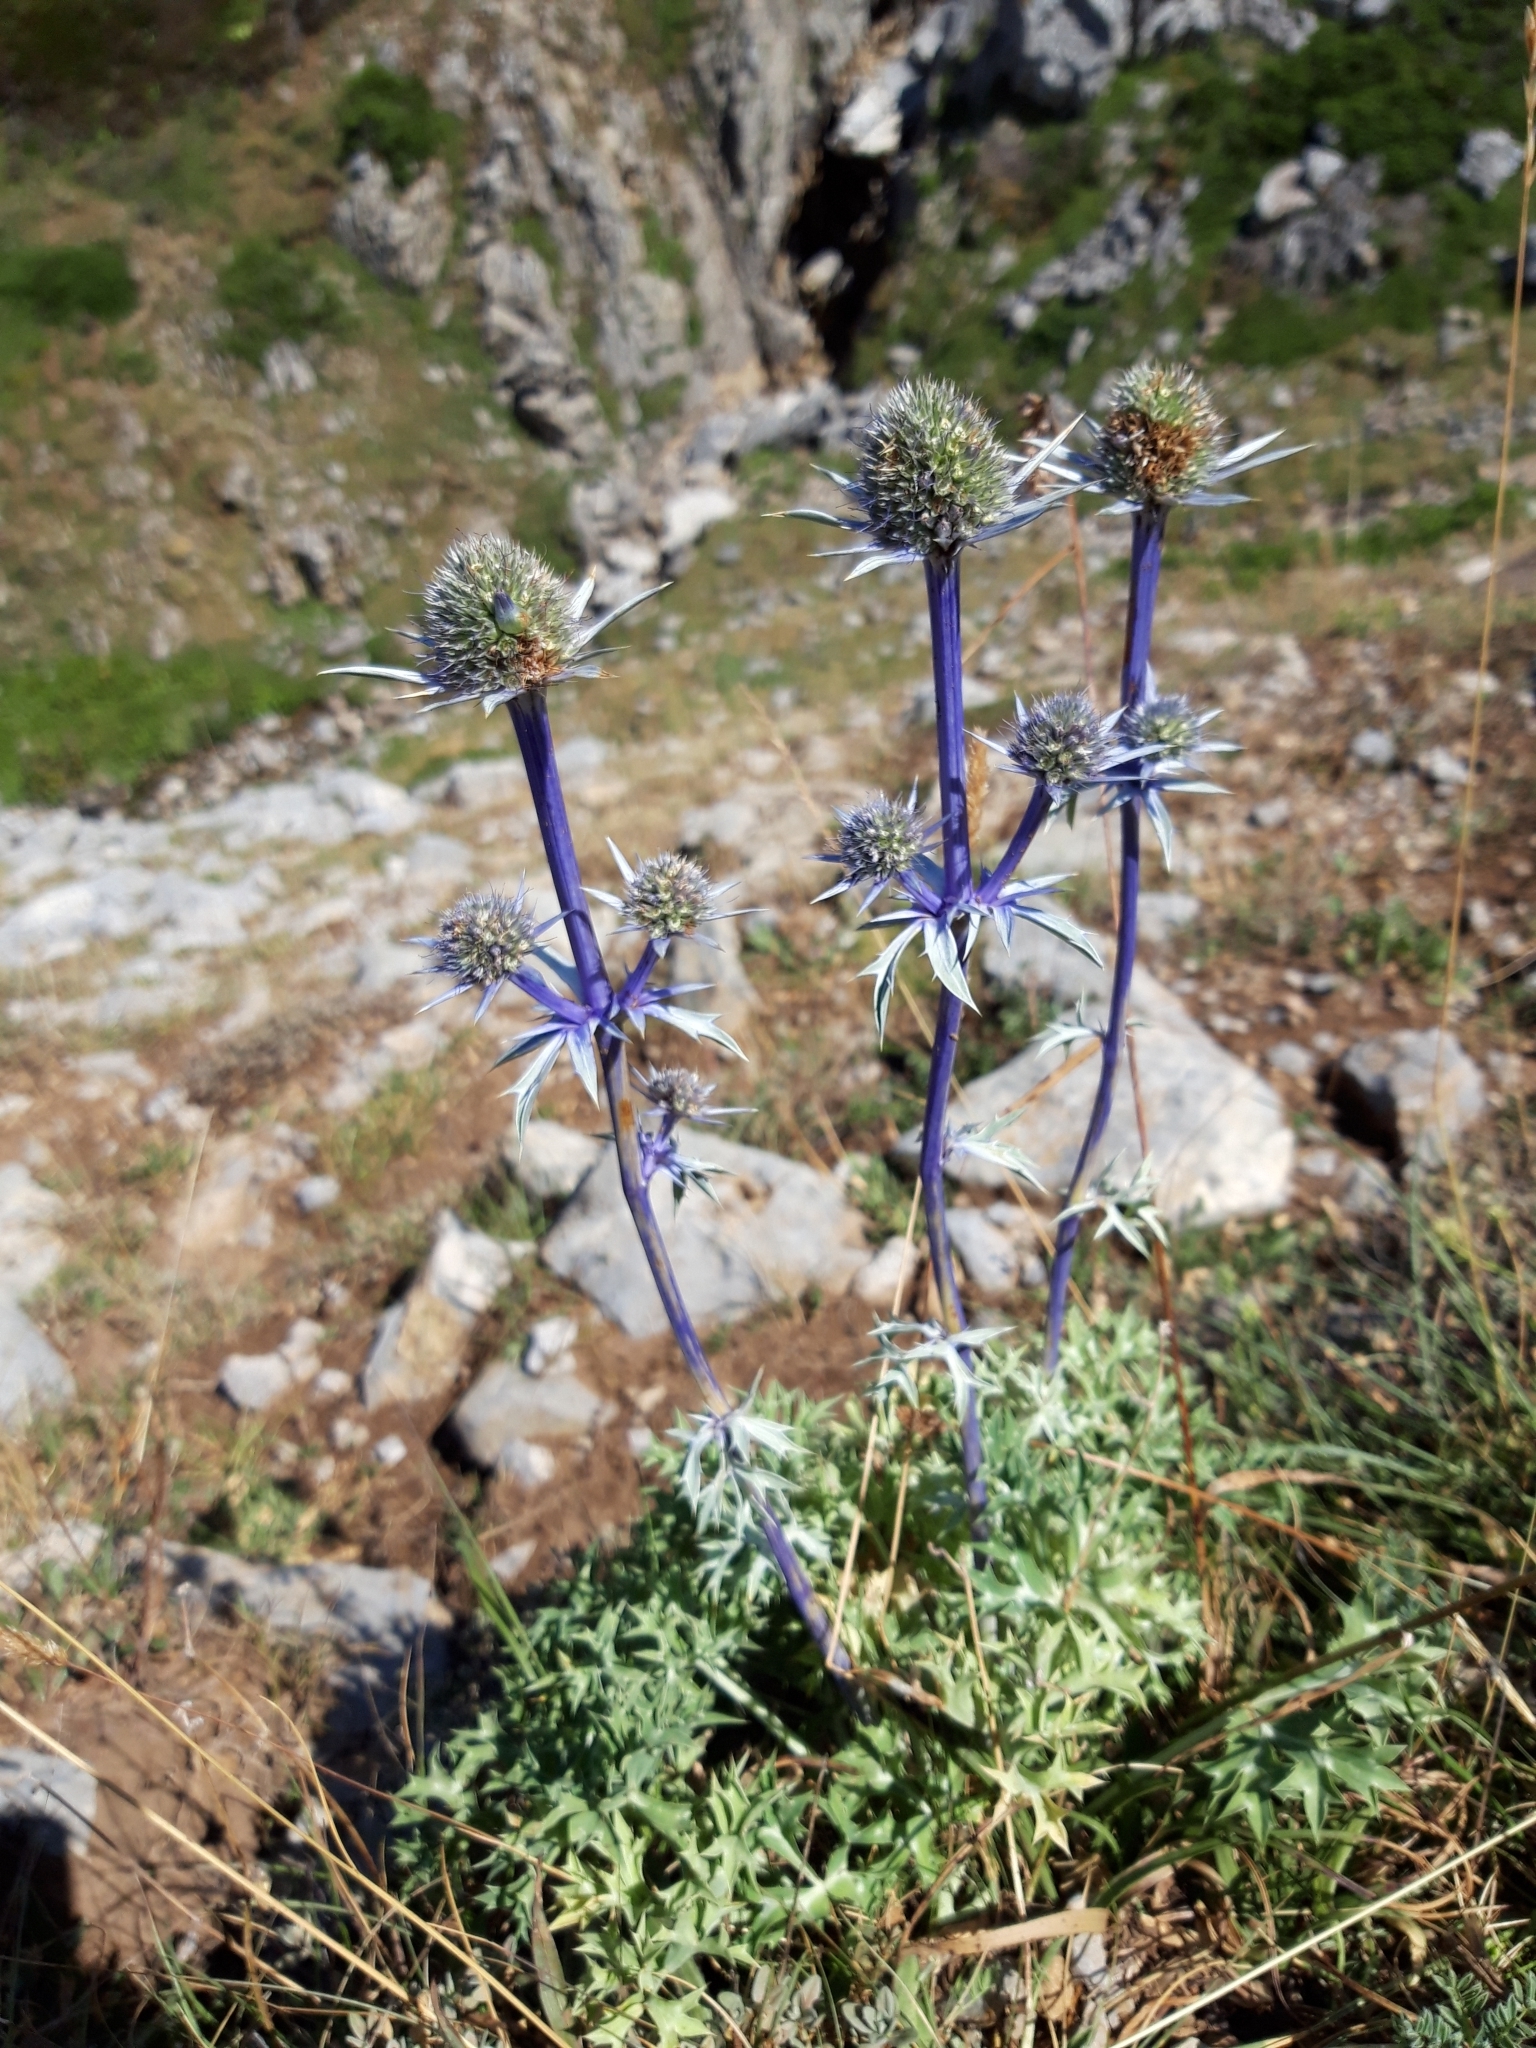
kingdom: Plantae
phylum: Tracheophyta
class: Magnoliopsida
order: Apiales
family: Apiaceae
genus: Eryngium
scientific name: Eryngium bourgatii
